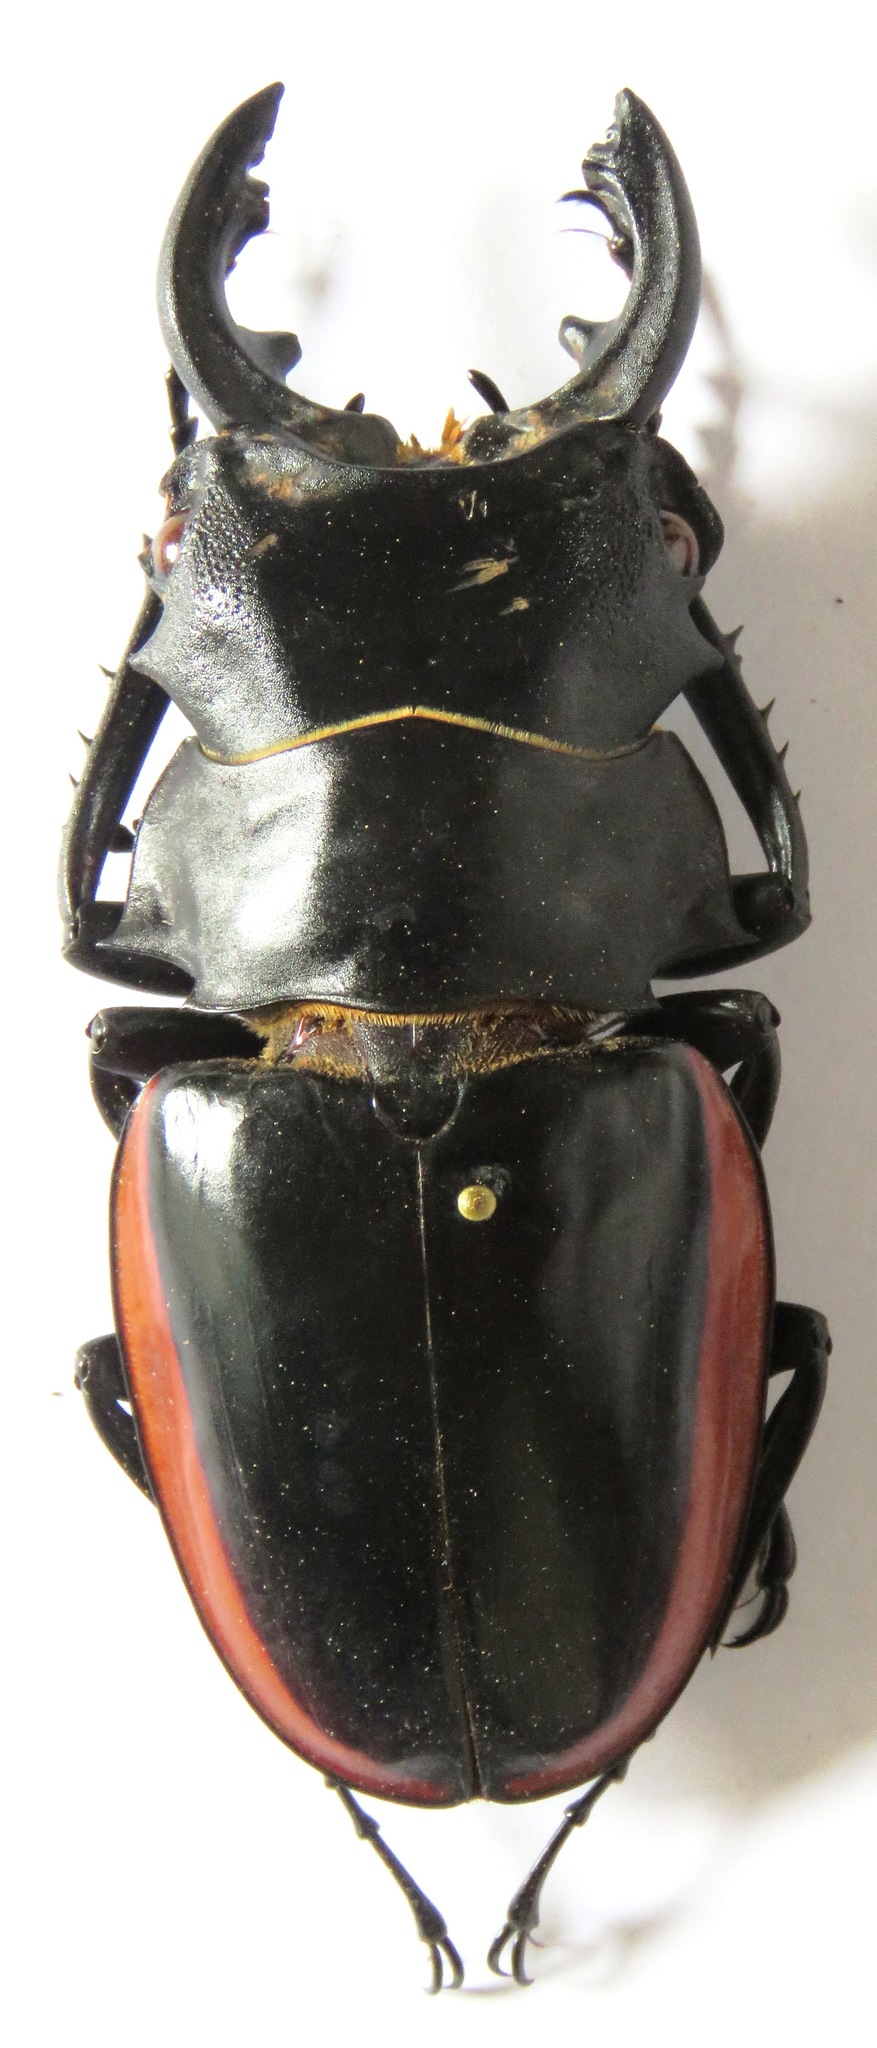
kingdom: Animalia
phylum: Arthropoda
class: Insecta
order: Coleoptera
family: Lucanidae
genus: Odontolabis
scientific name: Odontolabis cuvera
